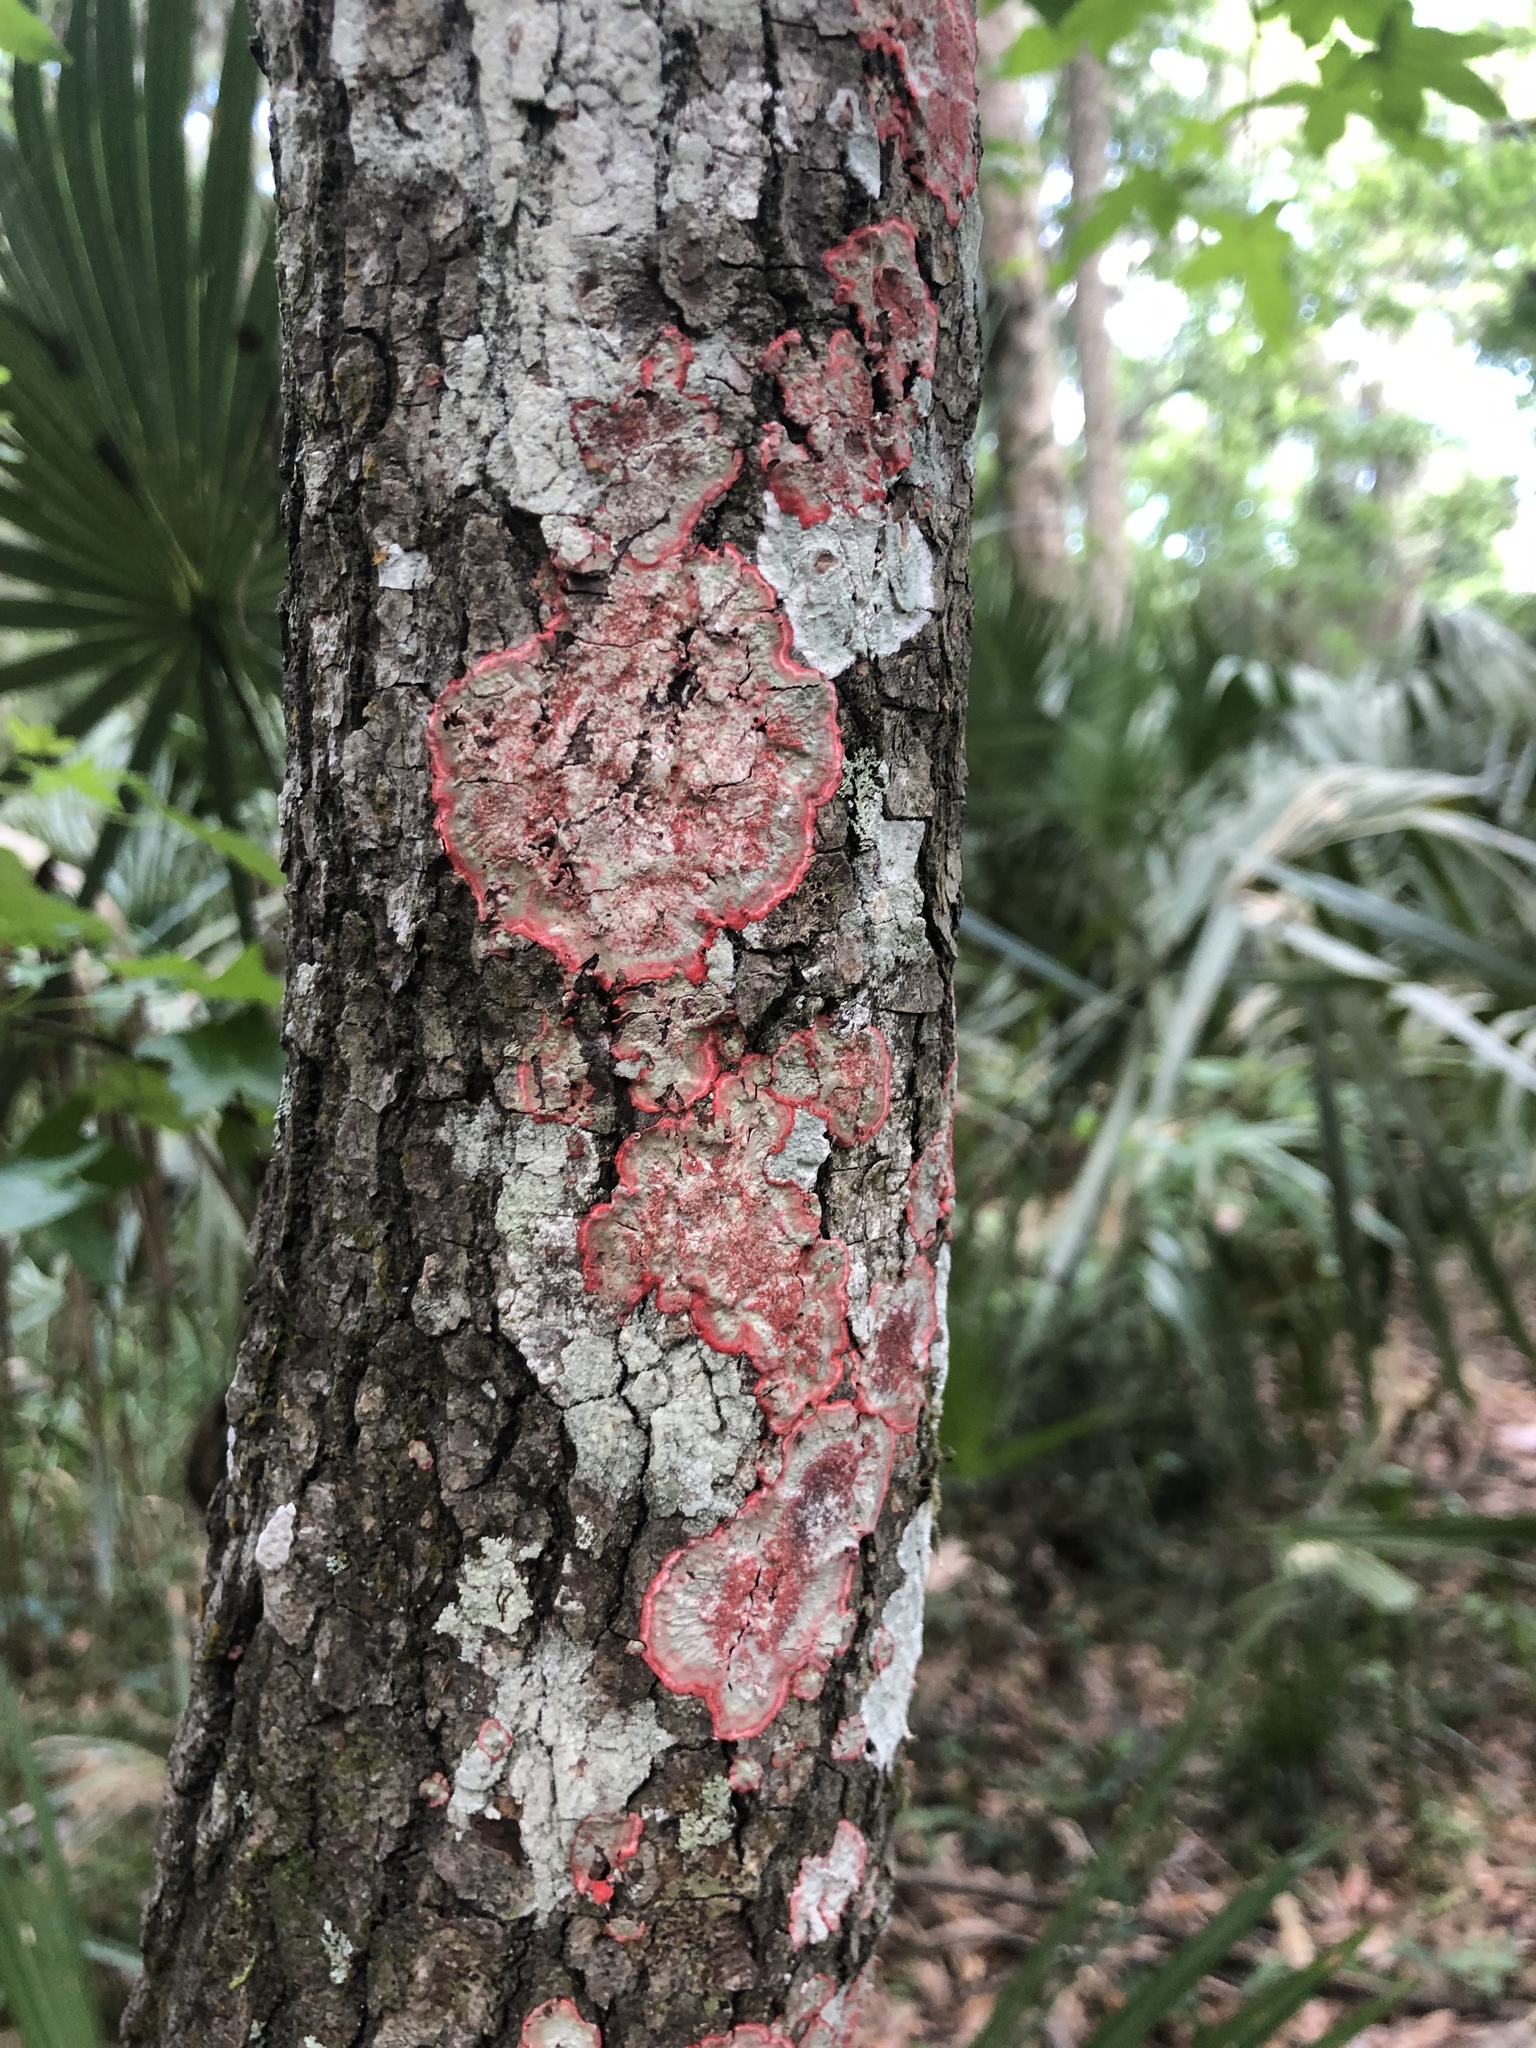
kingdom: Fungi
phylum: Ascomycota
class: Arthoniomycetes
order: Arthoniales
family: Arthoniaceae
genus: Herpothallon
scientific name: Herpothallon rubrocinctum
